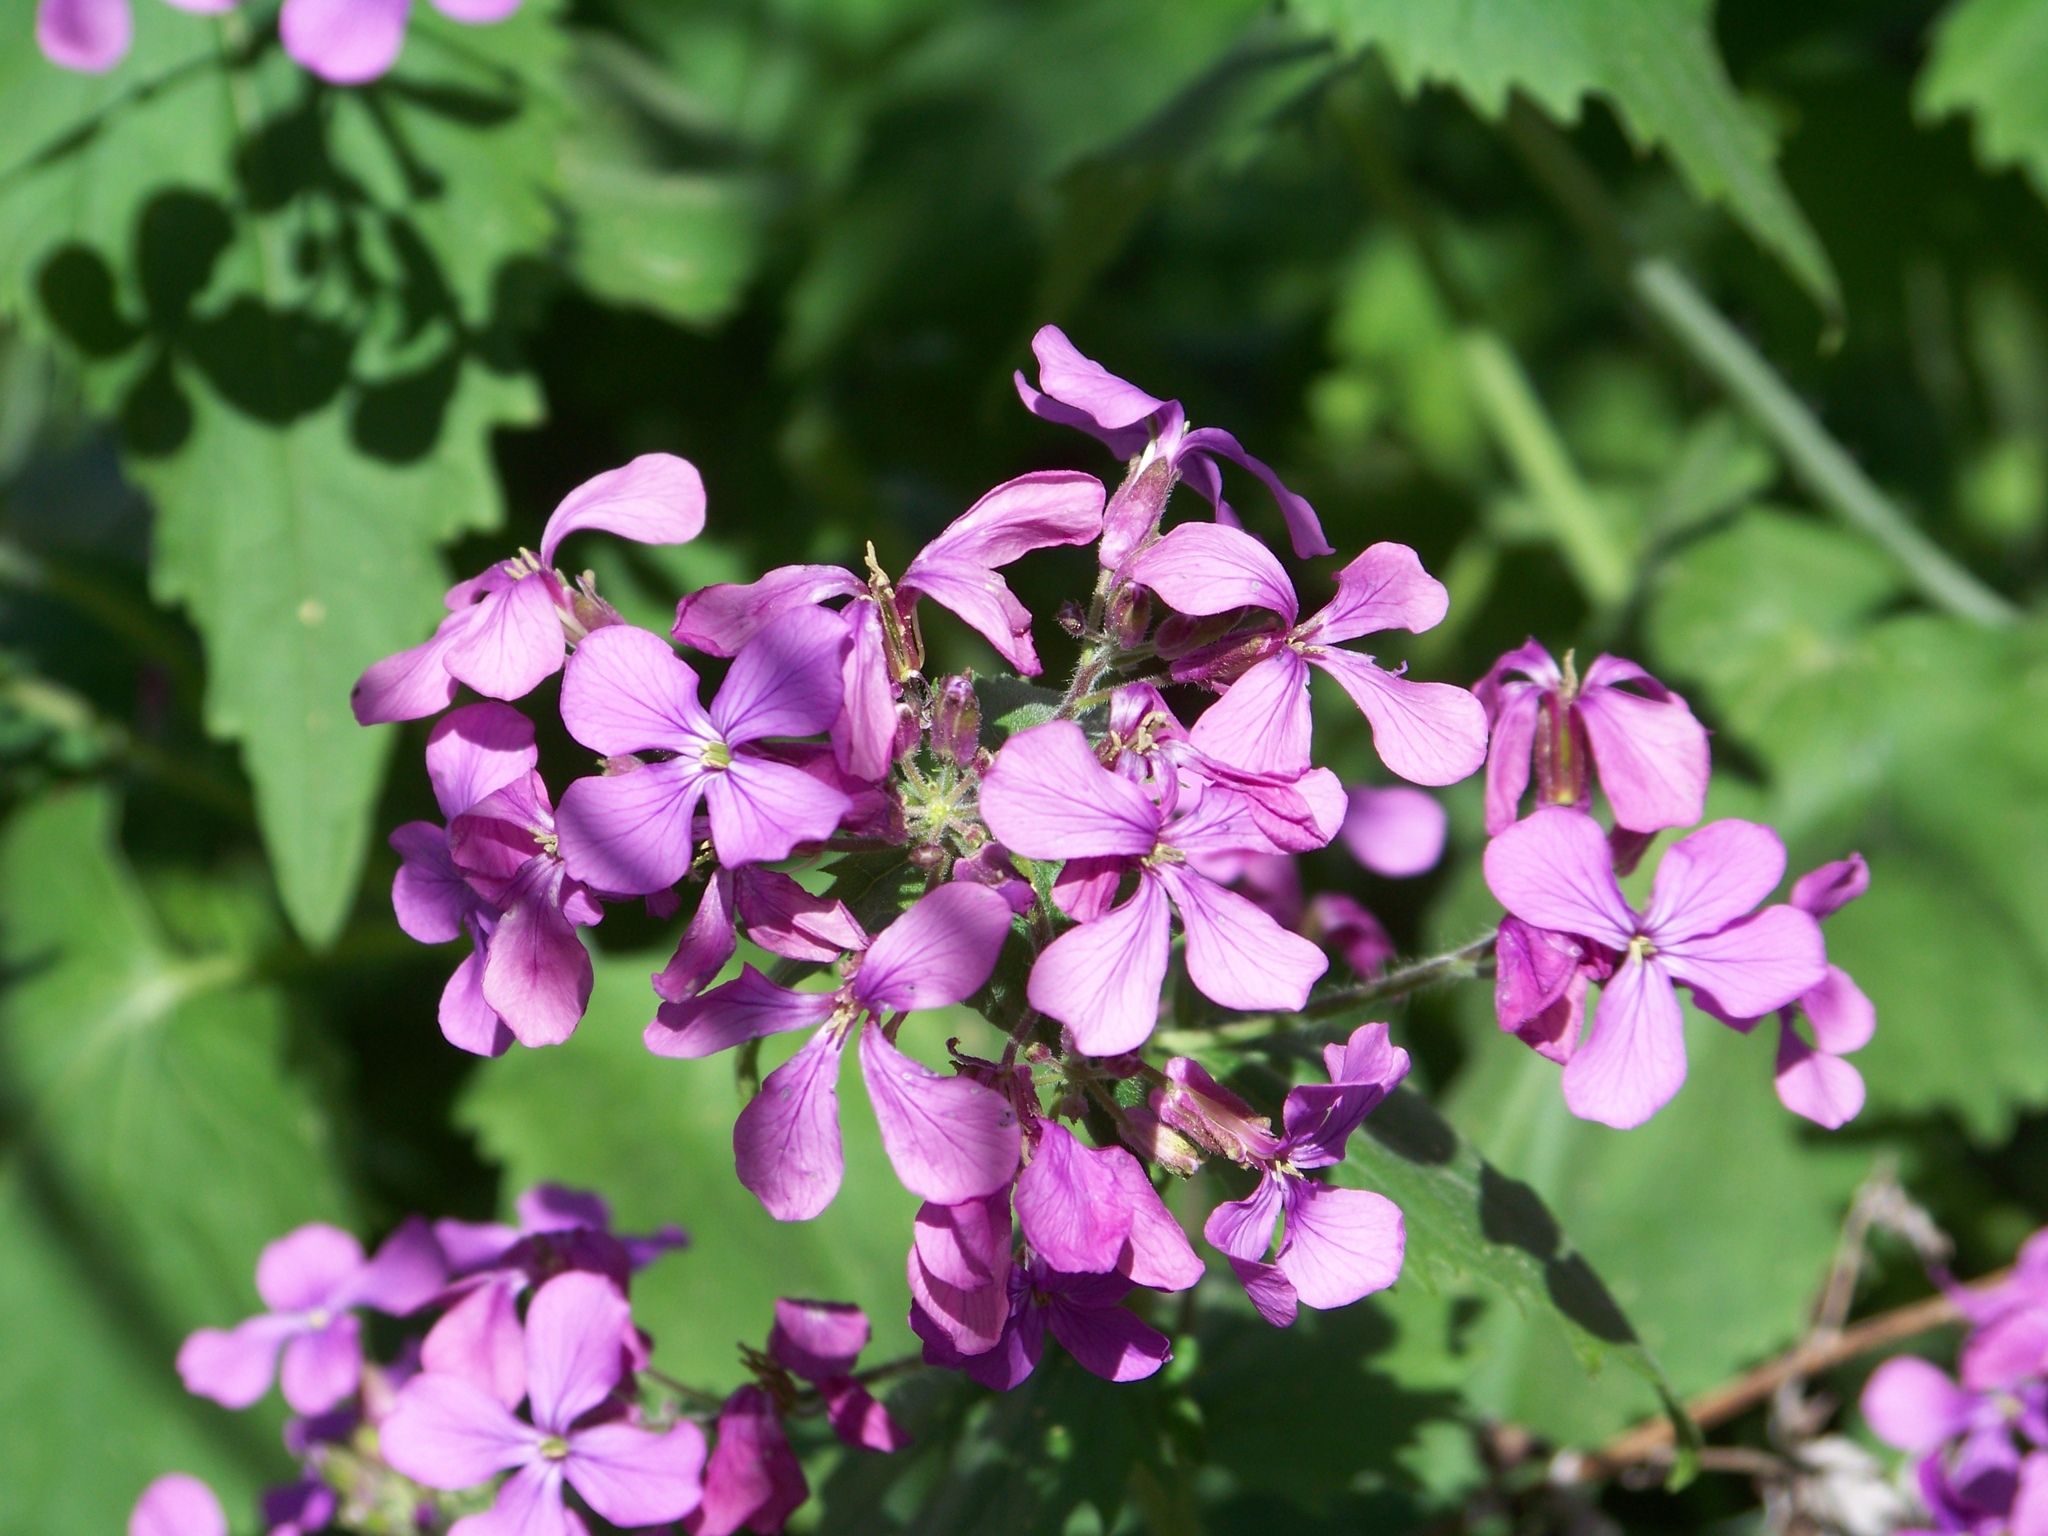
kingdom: Plantae
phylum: Tracheophyta
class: Magnoliopsida
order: Brassicales
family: Brassicaceae
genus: Lunaria
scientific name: Lunaria annua
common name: Honesty
